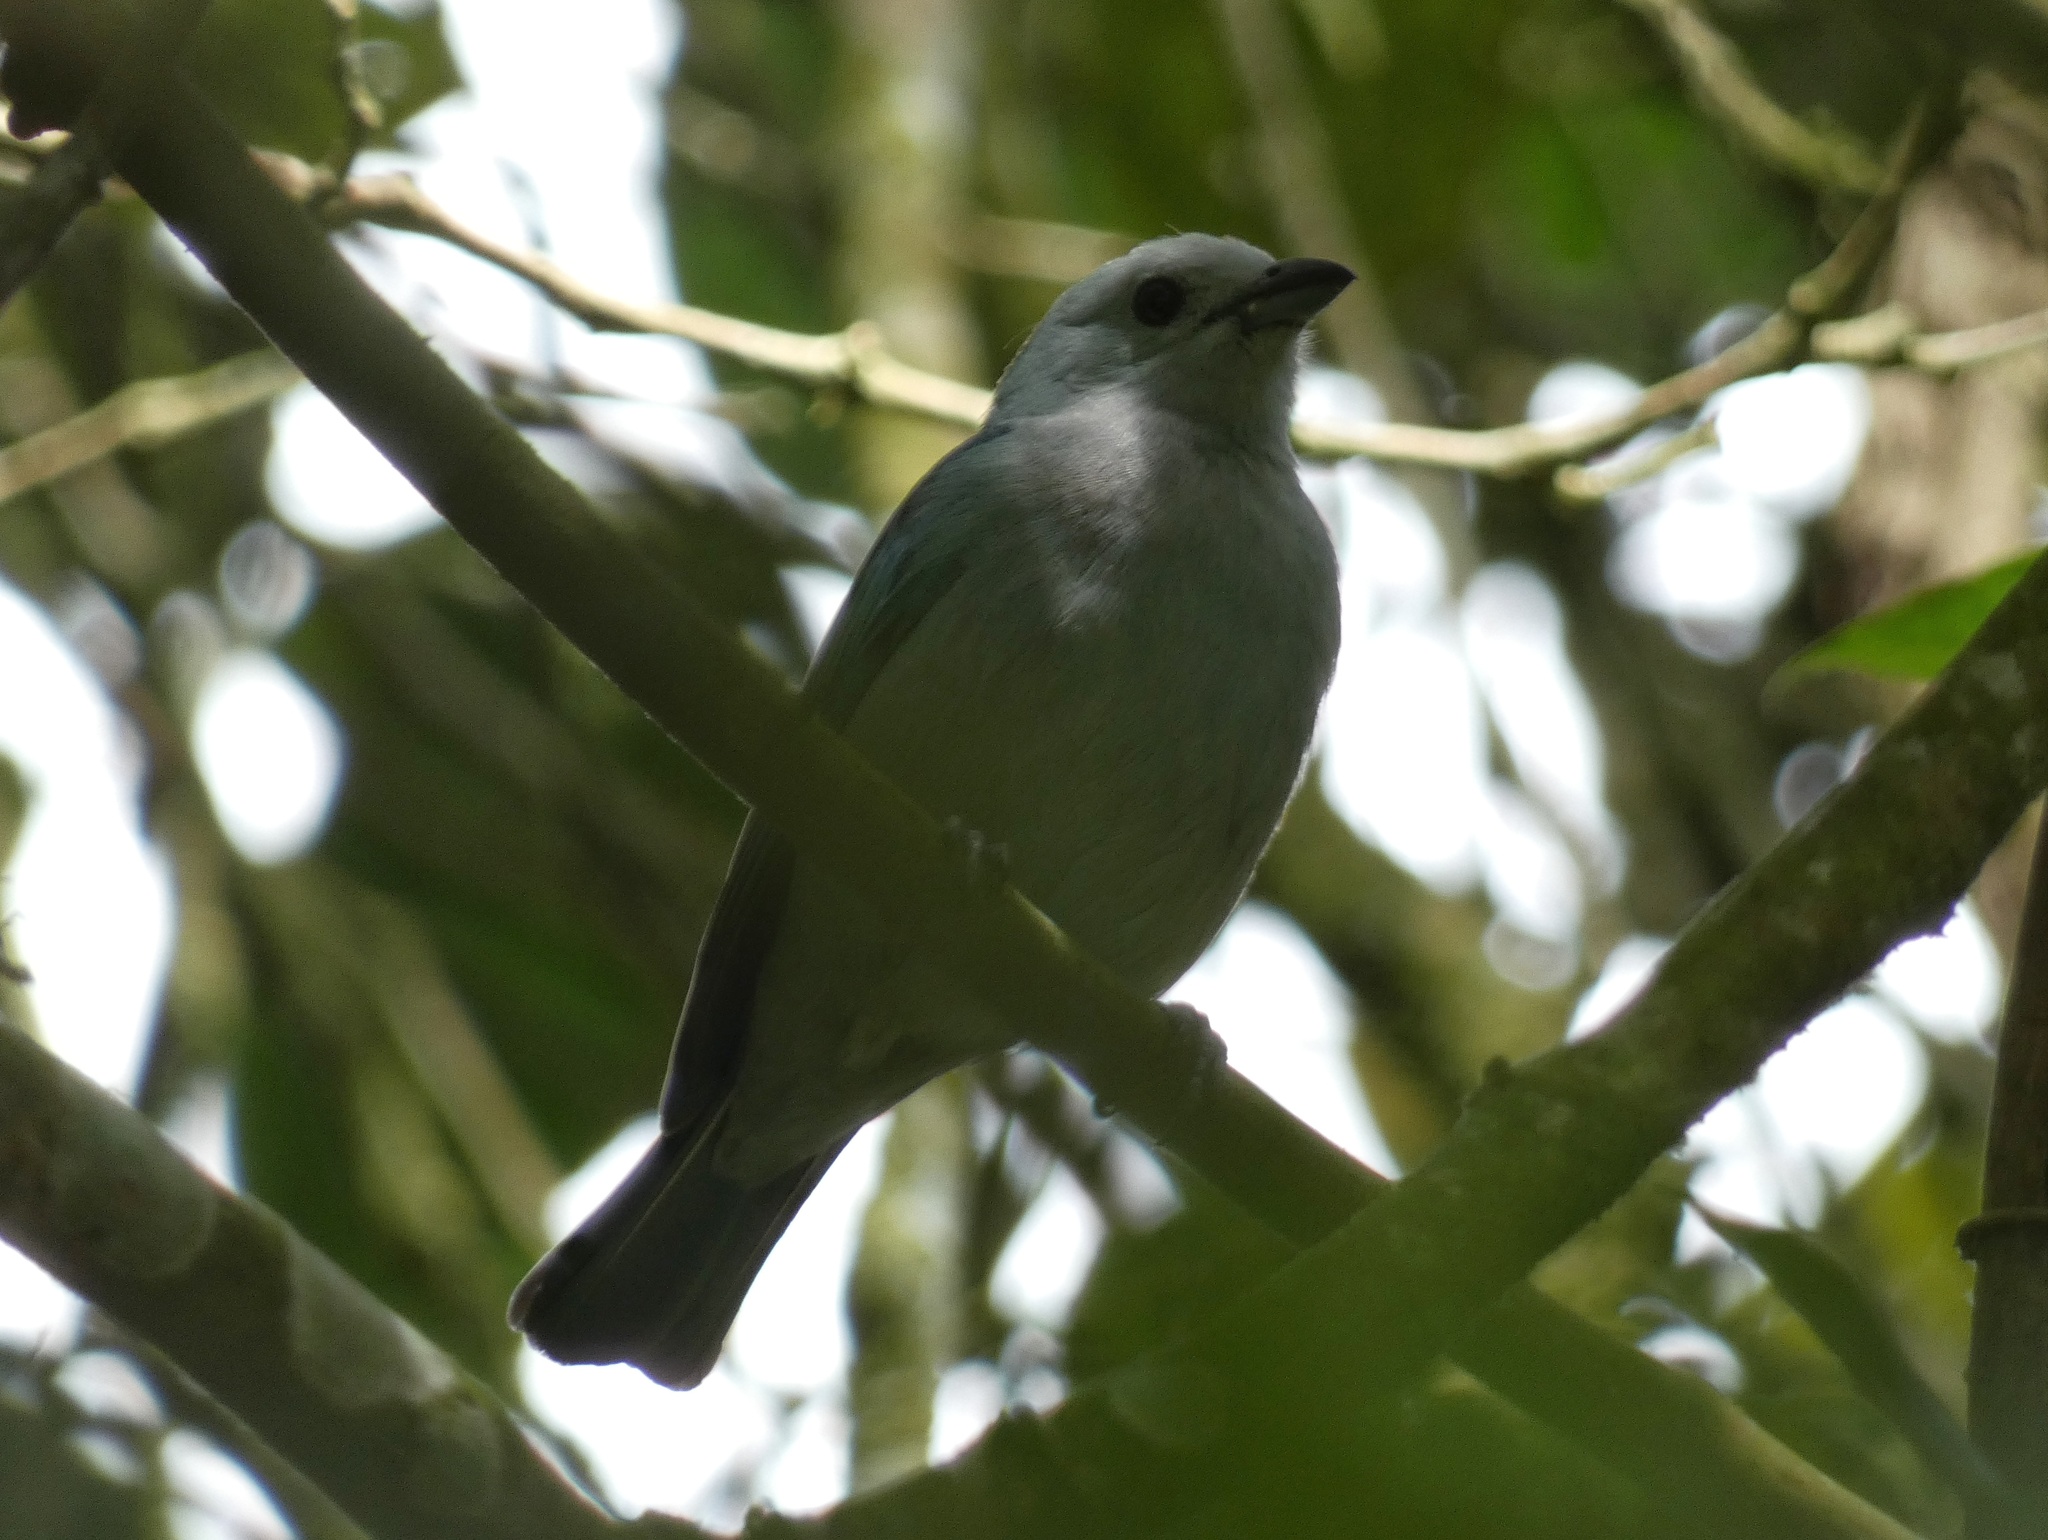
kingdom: Animalia
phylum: Chordata
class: Aves
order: Passeriformes
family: Thraupidae
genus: Thraupis
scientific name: Thraupis episcopus
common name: Blue-grey tanager
